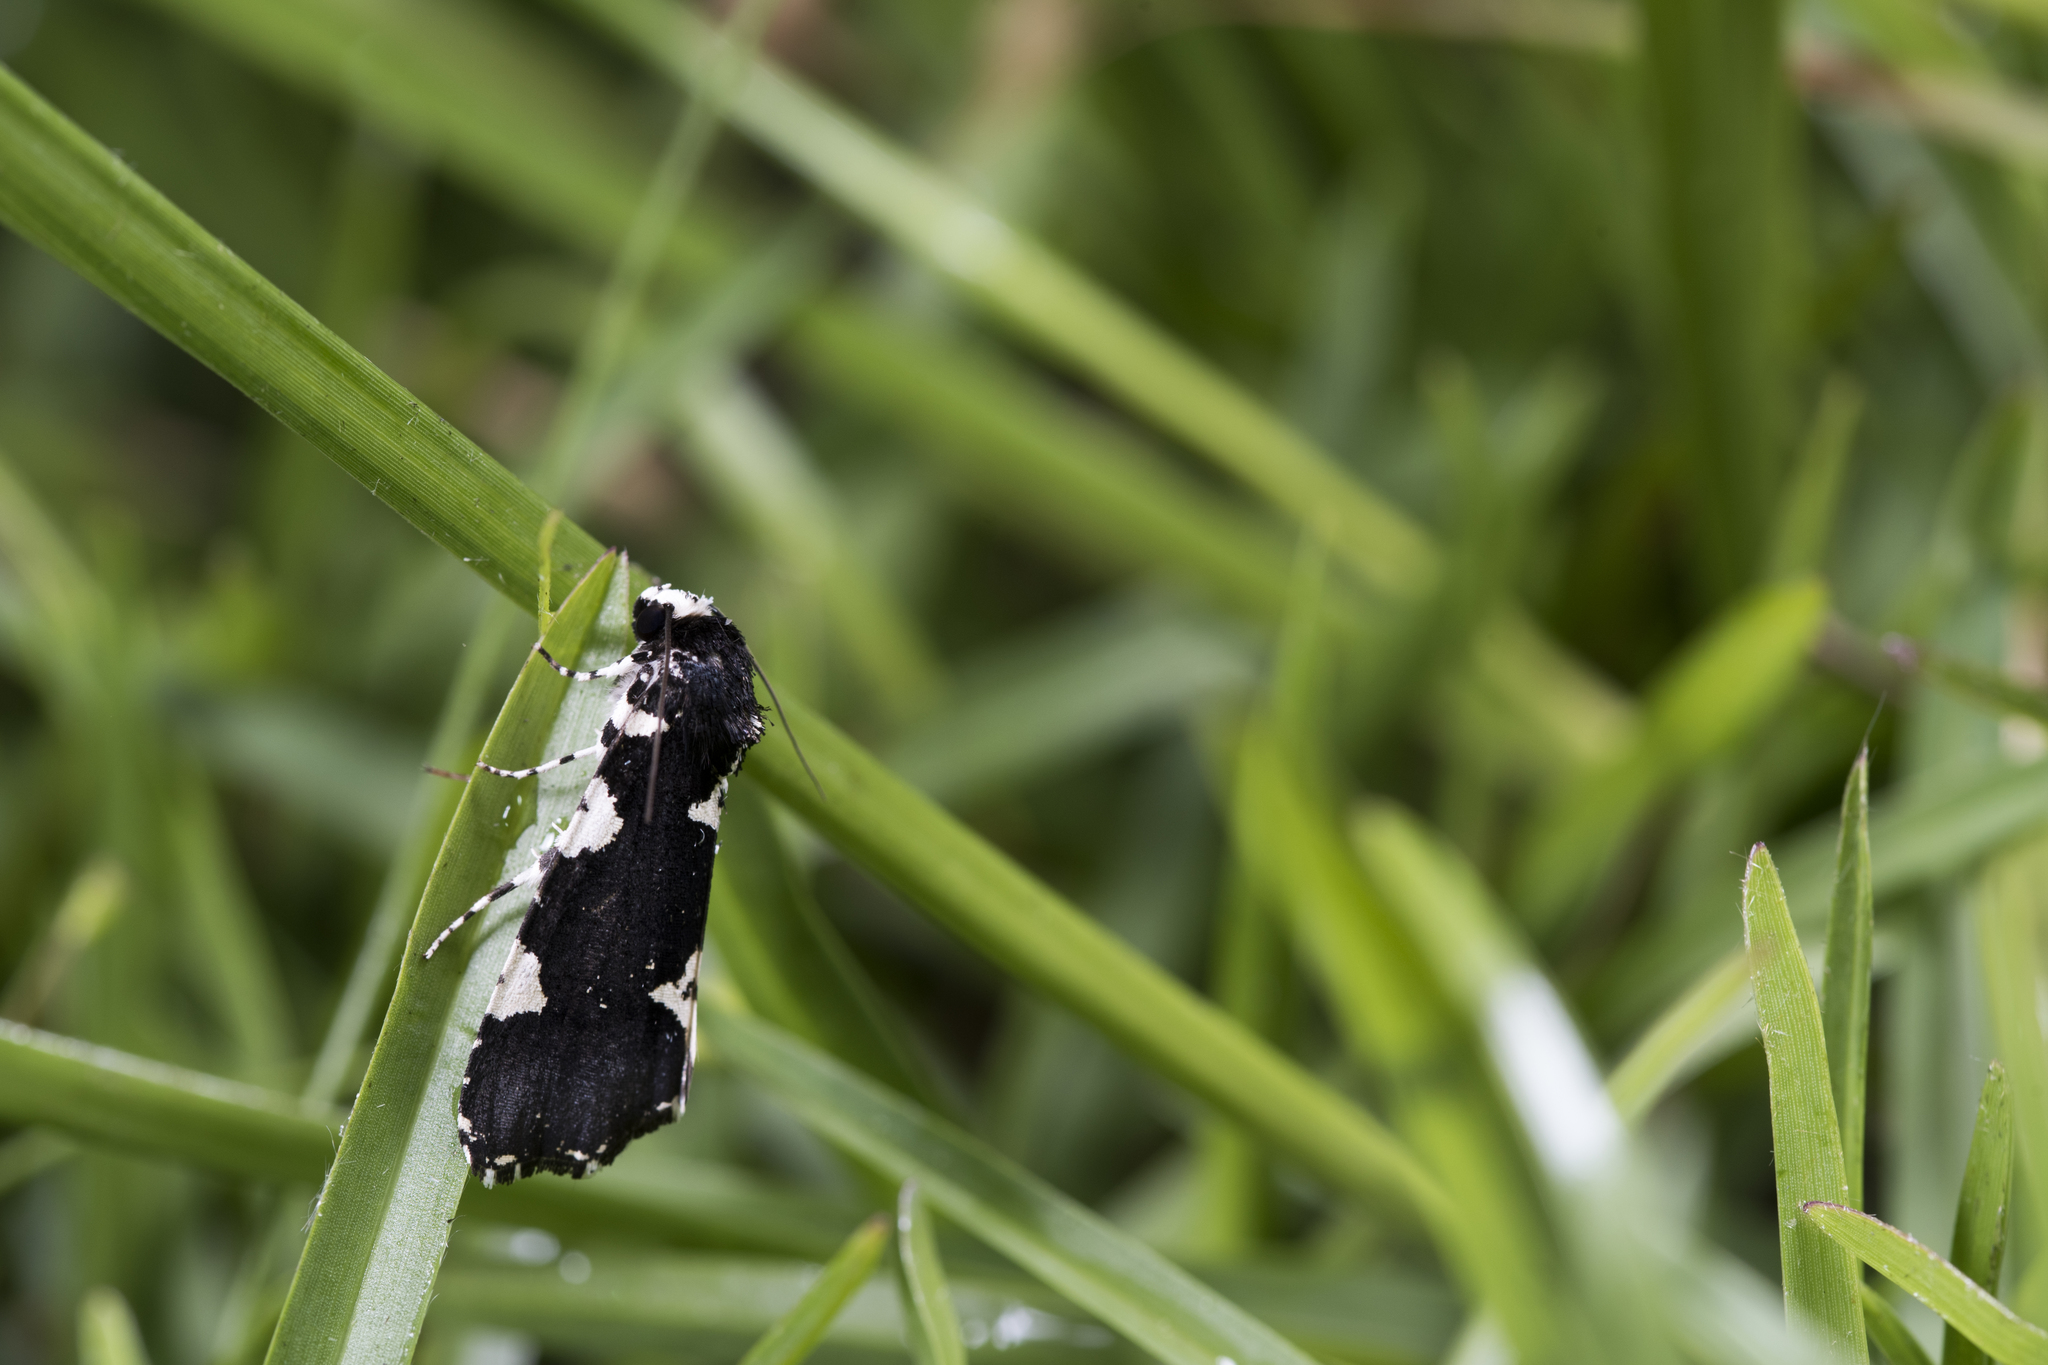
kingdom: Animalia
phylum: Arthropoda
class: Insecta
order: Lepidoptera
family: Noctuidae
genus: Goenycta
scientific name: Goenycta niveiguttata
